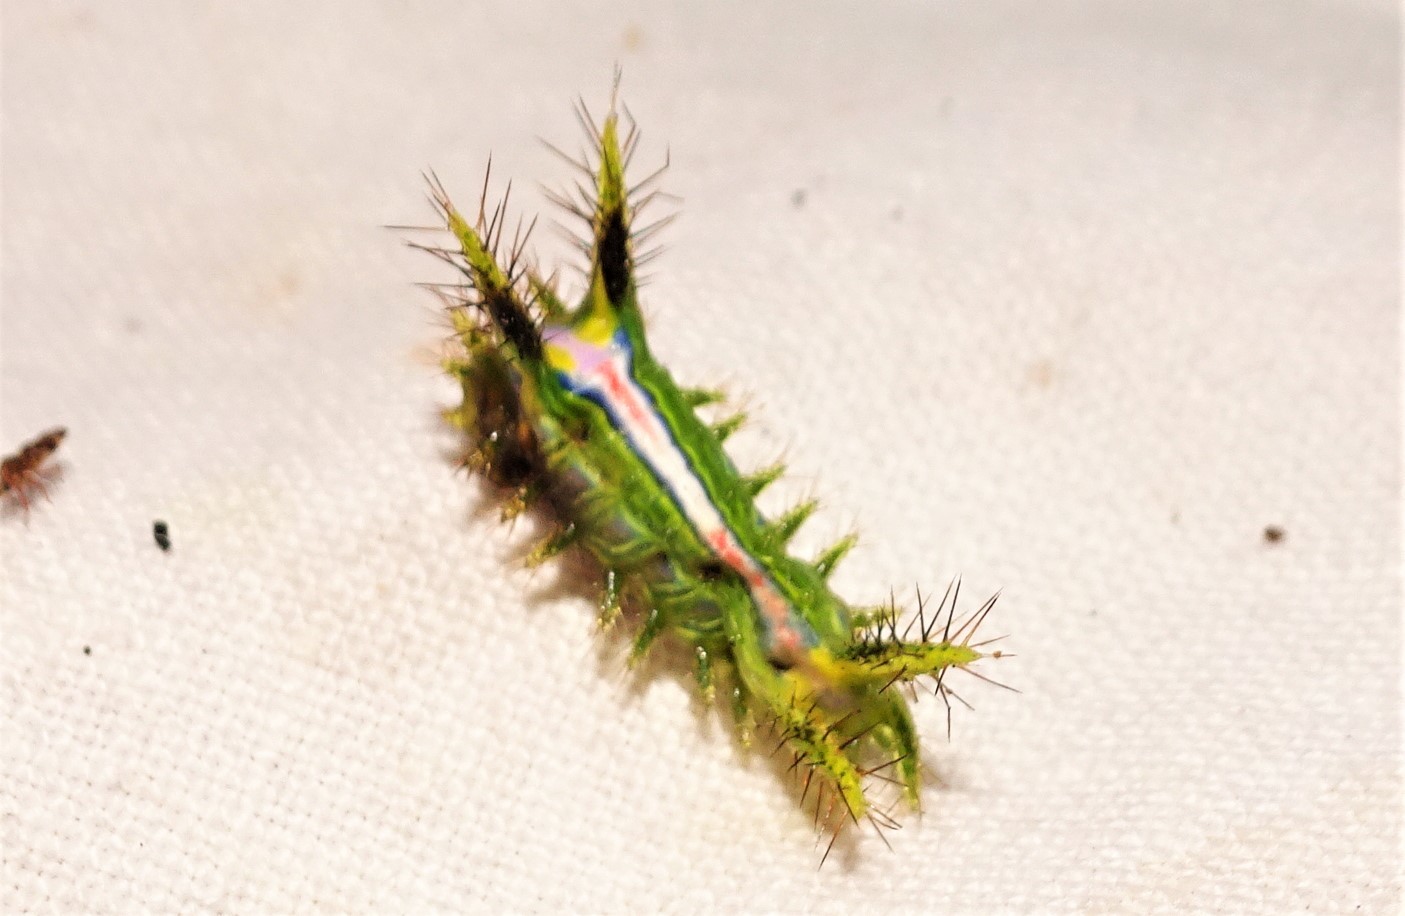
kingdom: Animalia
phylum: Arthropoda
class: Insecta
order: Lepidoptera
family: Limacodidae
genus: Anaxidia
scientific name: Anaxidia lozogramma
